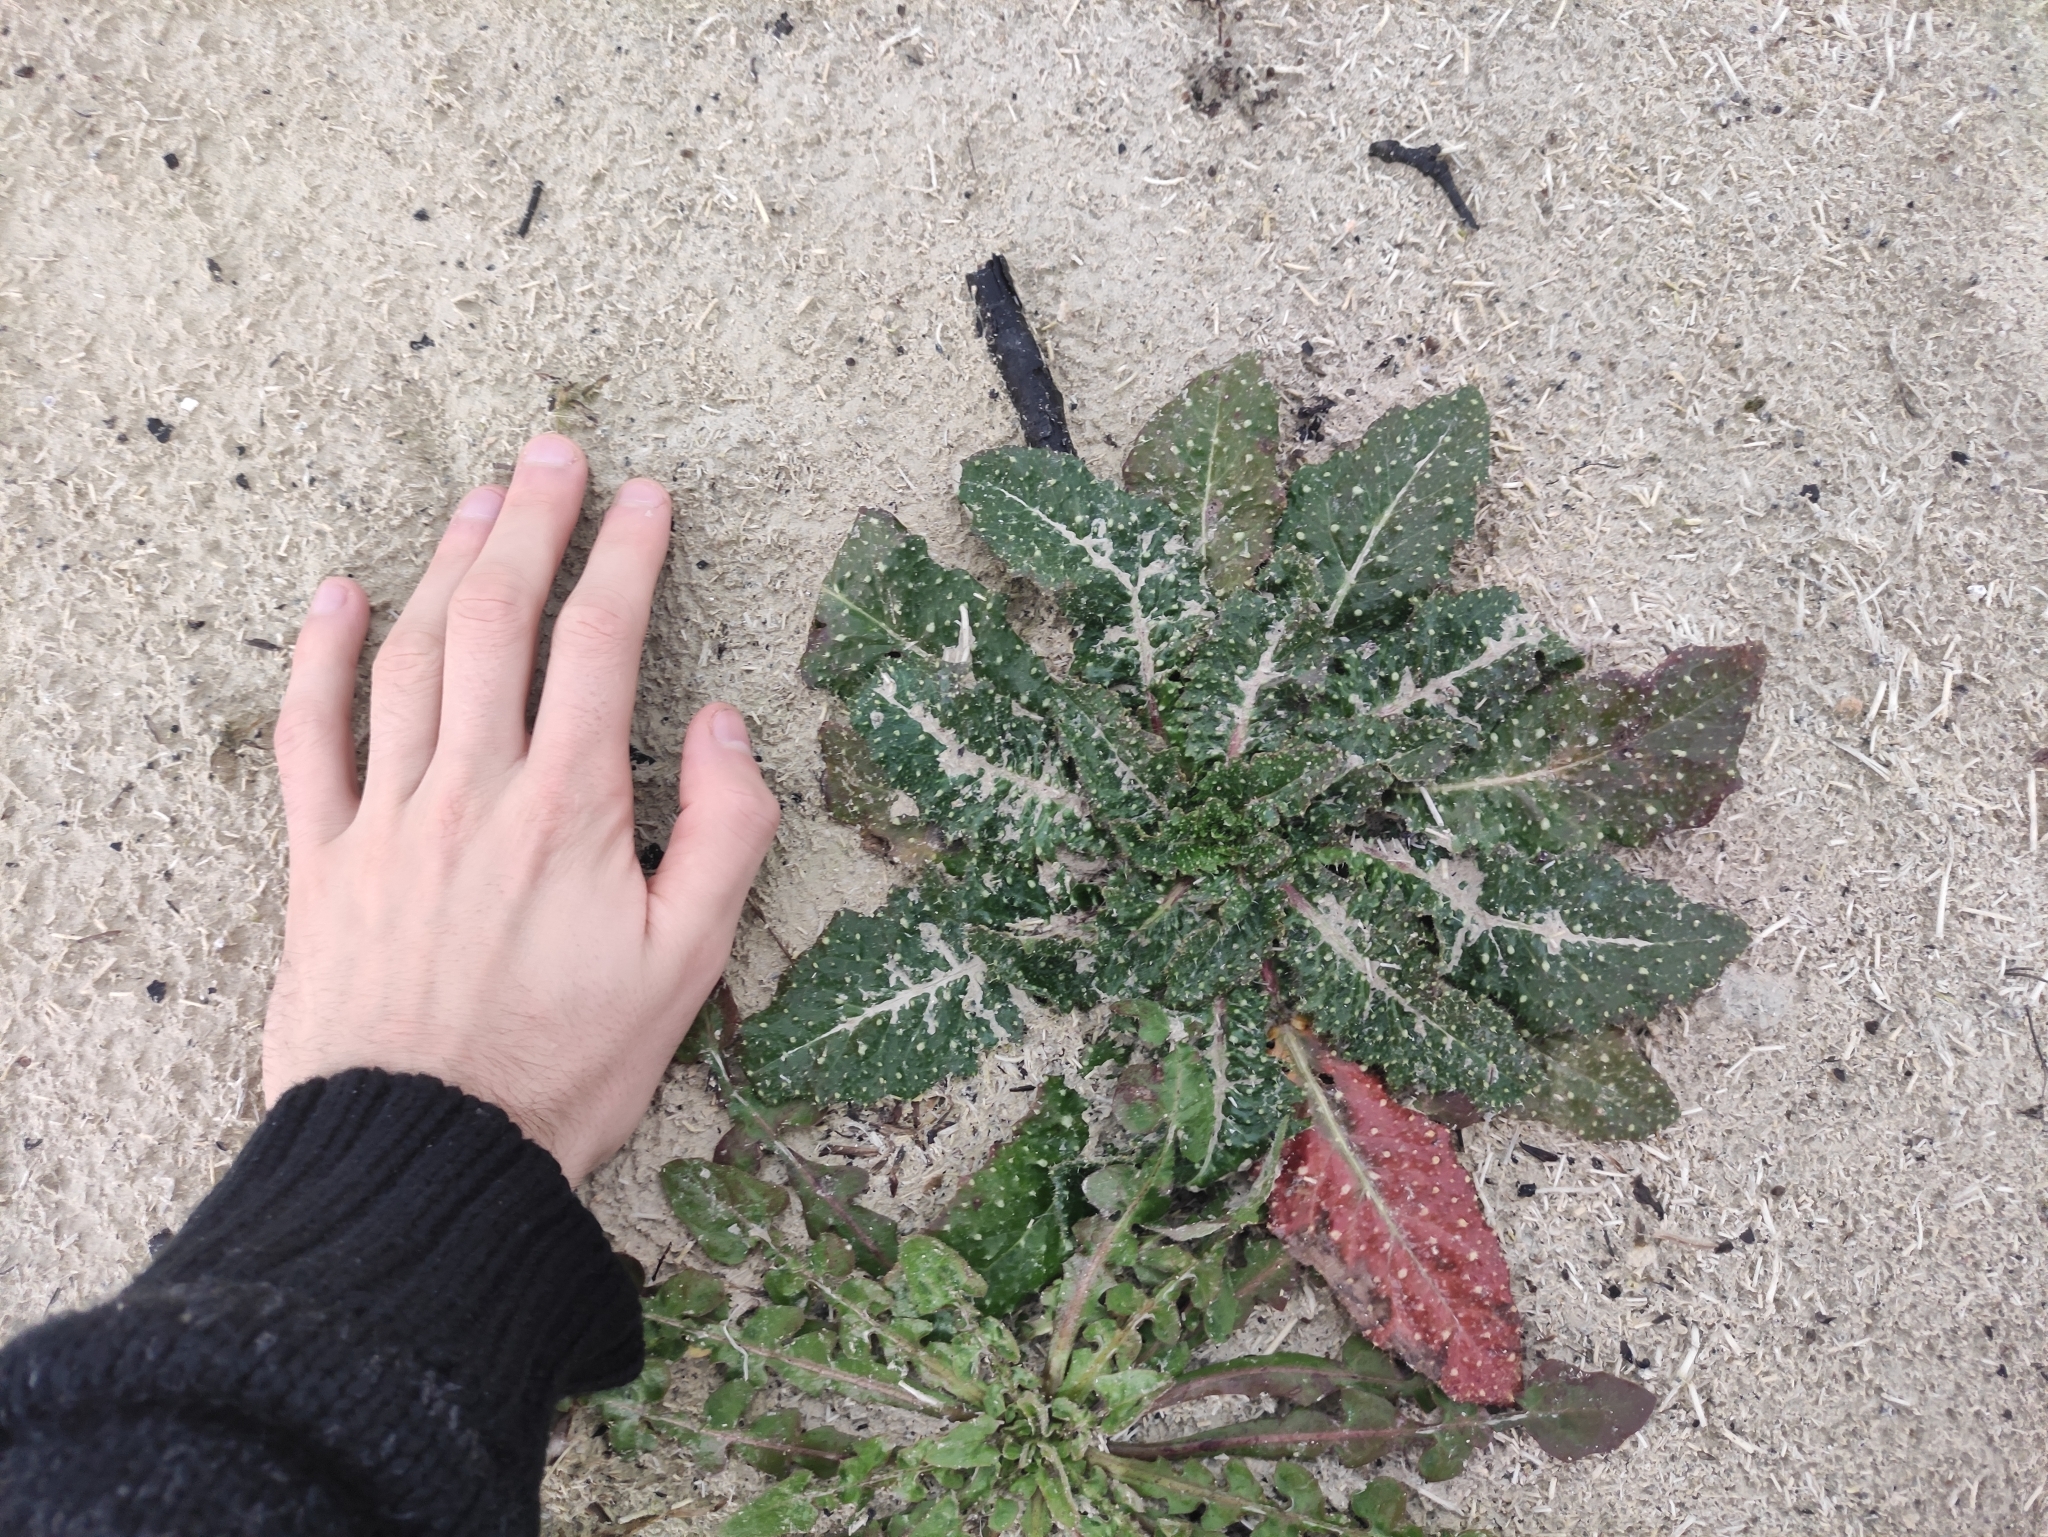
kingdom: Plantae
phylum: Tracheophyta
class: Magnoliopsida
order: Asterales
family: Asteraceae
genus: Helminthotheca
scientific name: Helminthotheca echioides
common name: Ox-tongue
